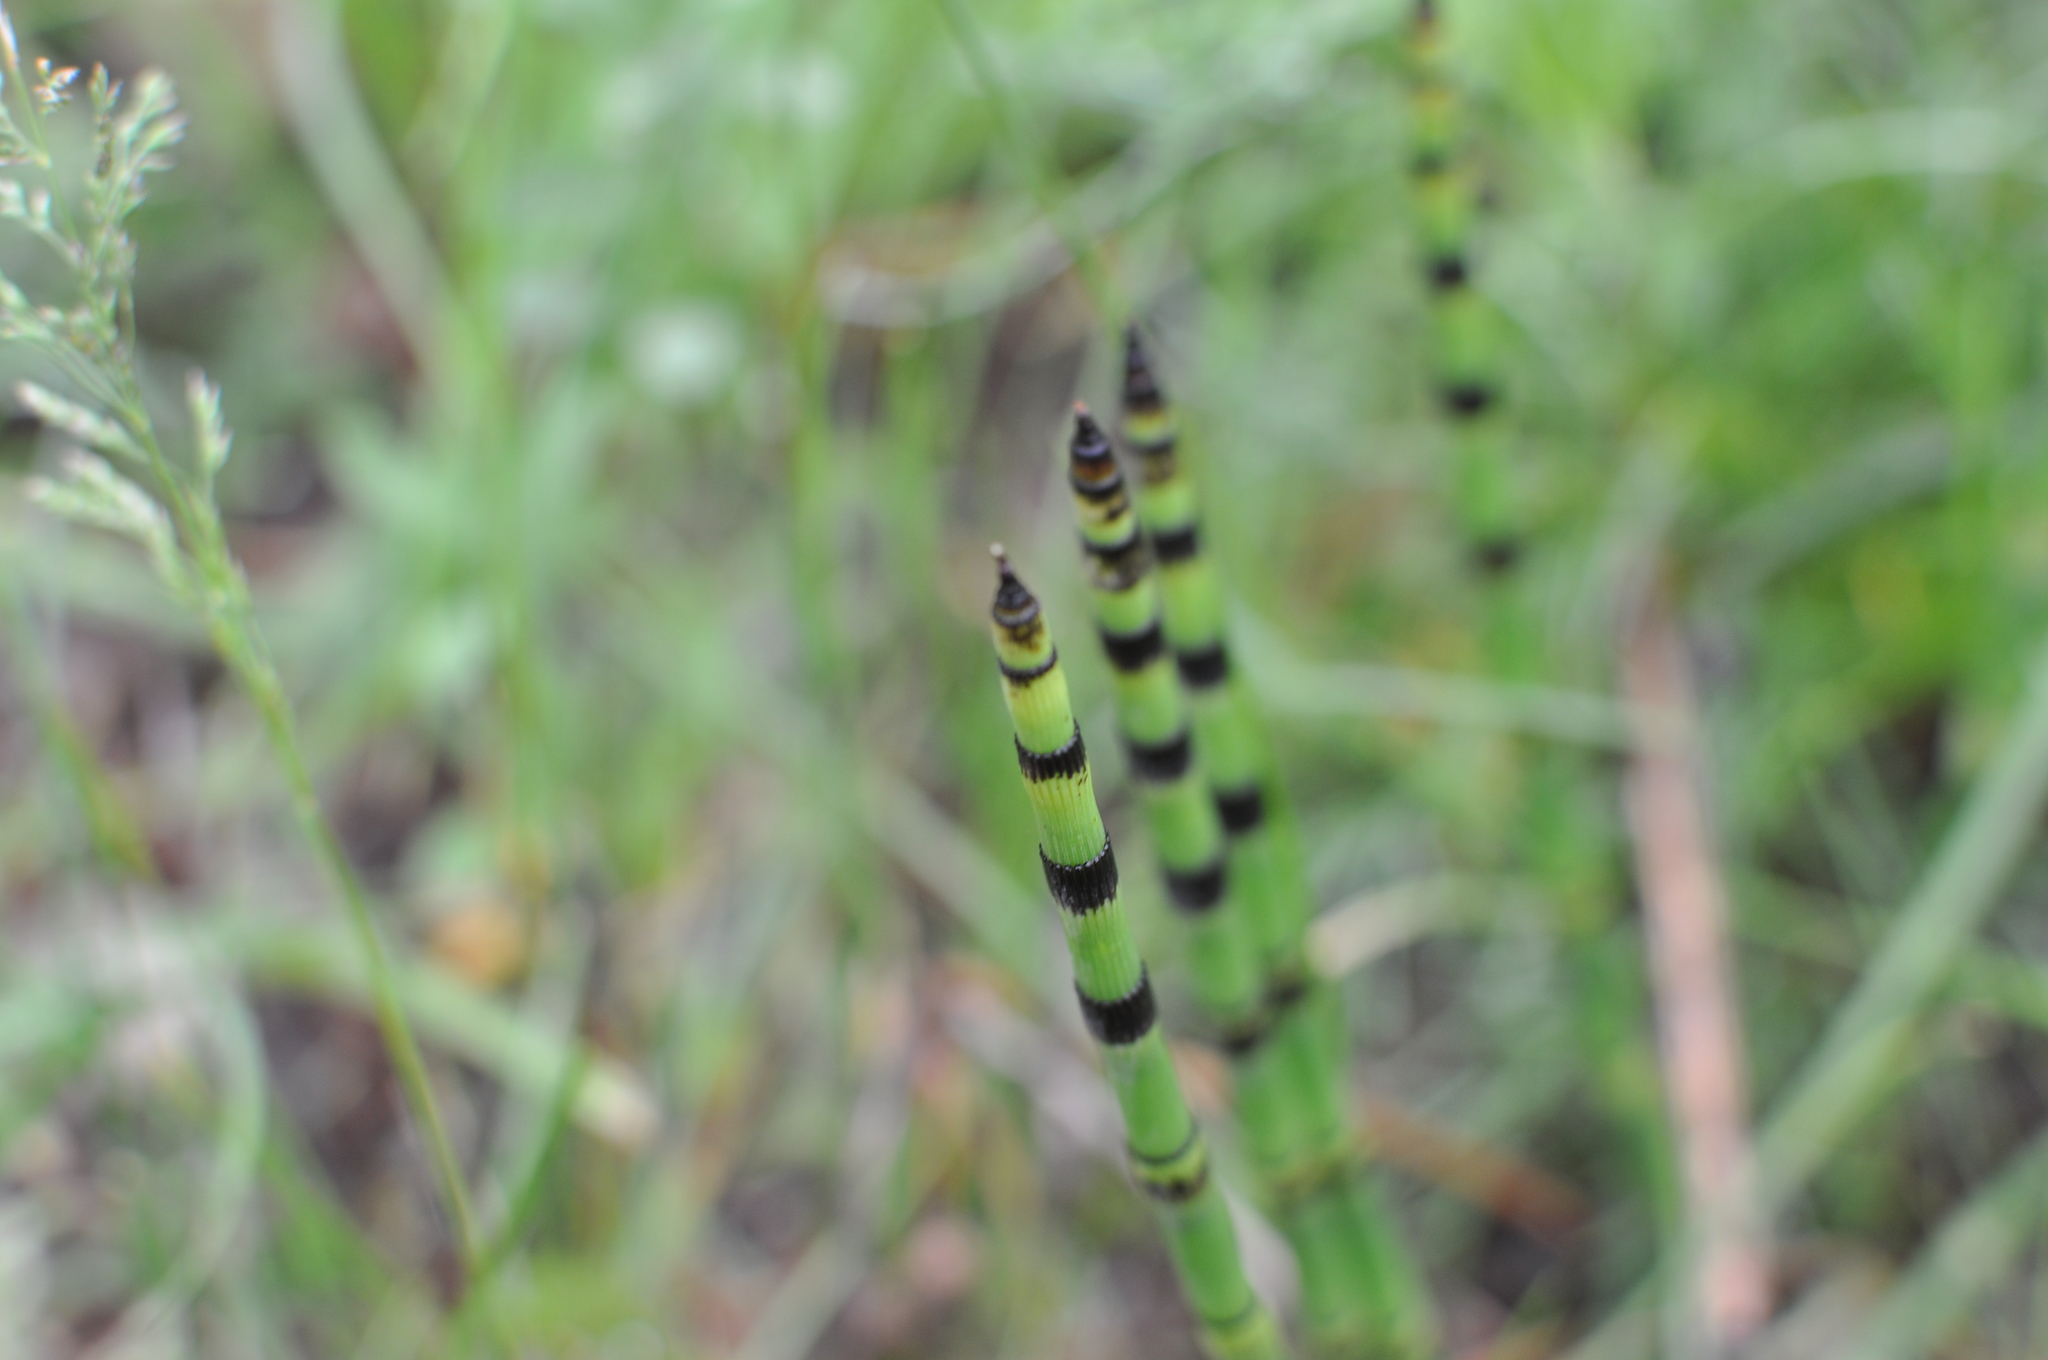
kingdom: Plantae
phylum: Tracheophyta
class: Polypodiopsida
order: Equisetales
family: Equisetaceae
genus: Equisetum
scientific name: Equisetum hyemale
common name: Rough horsetail
